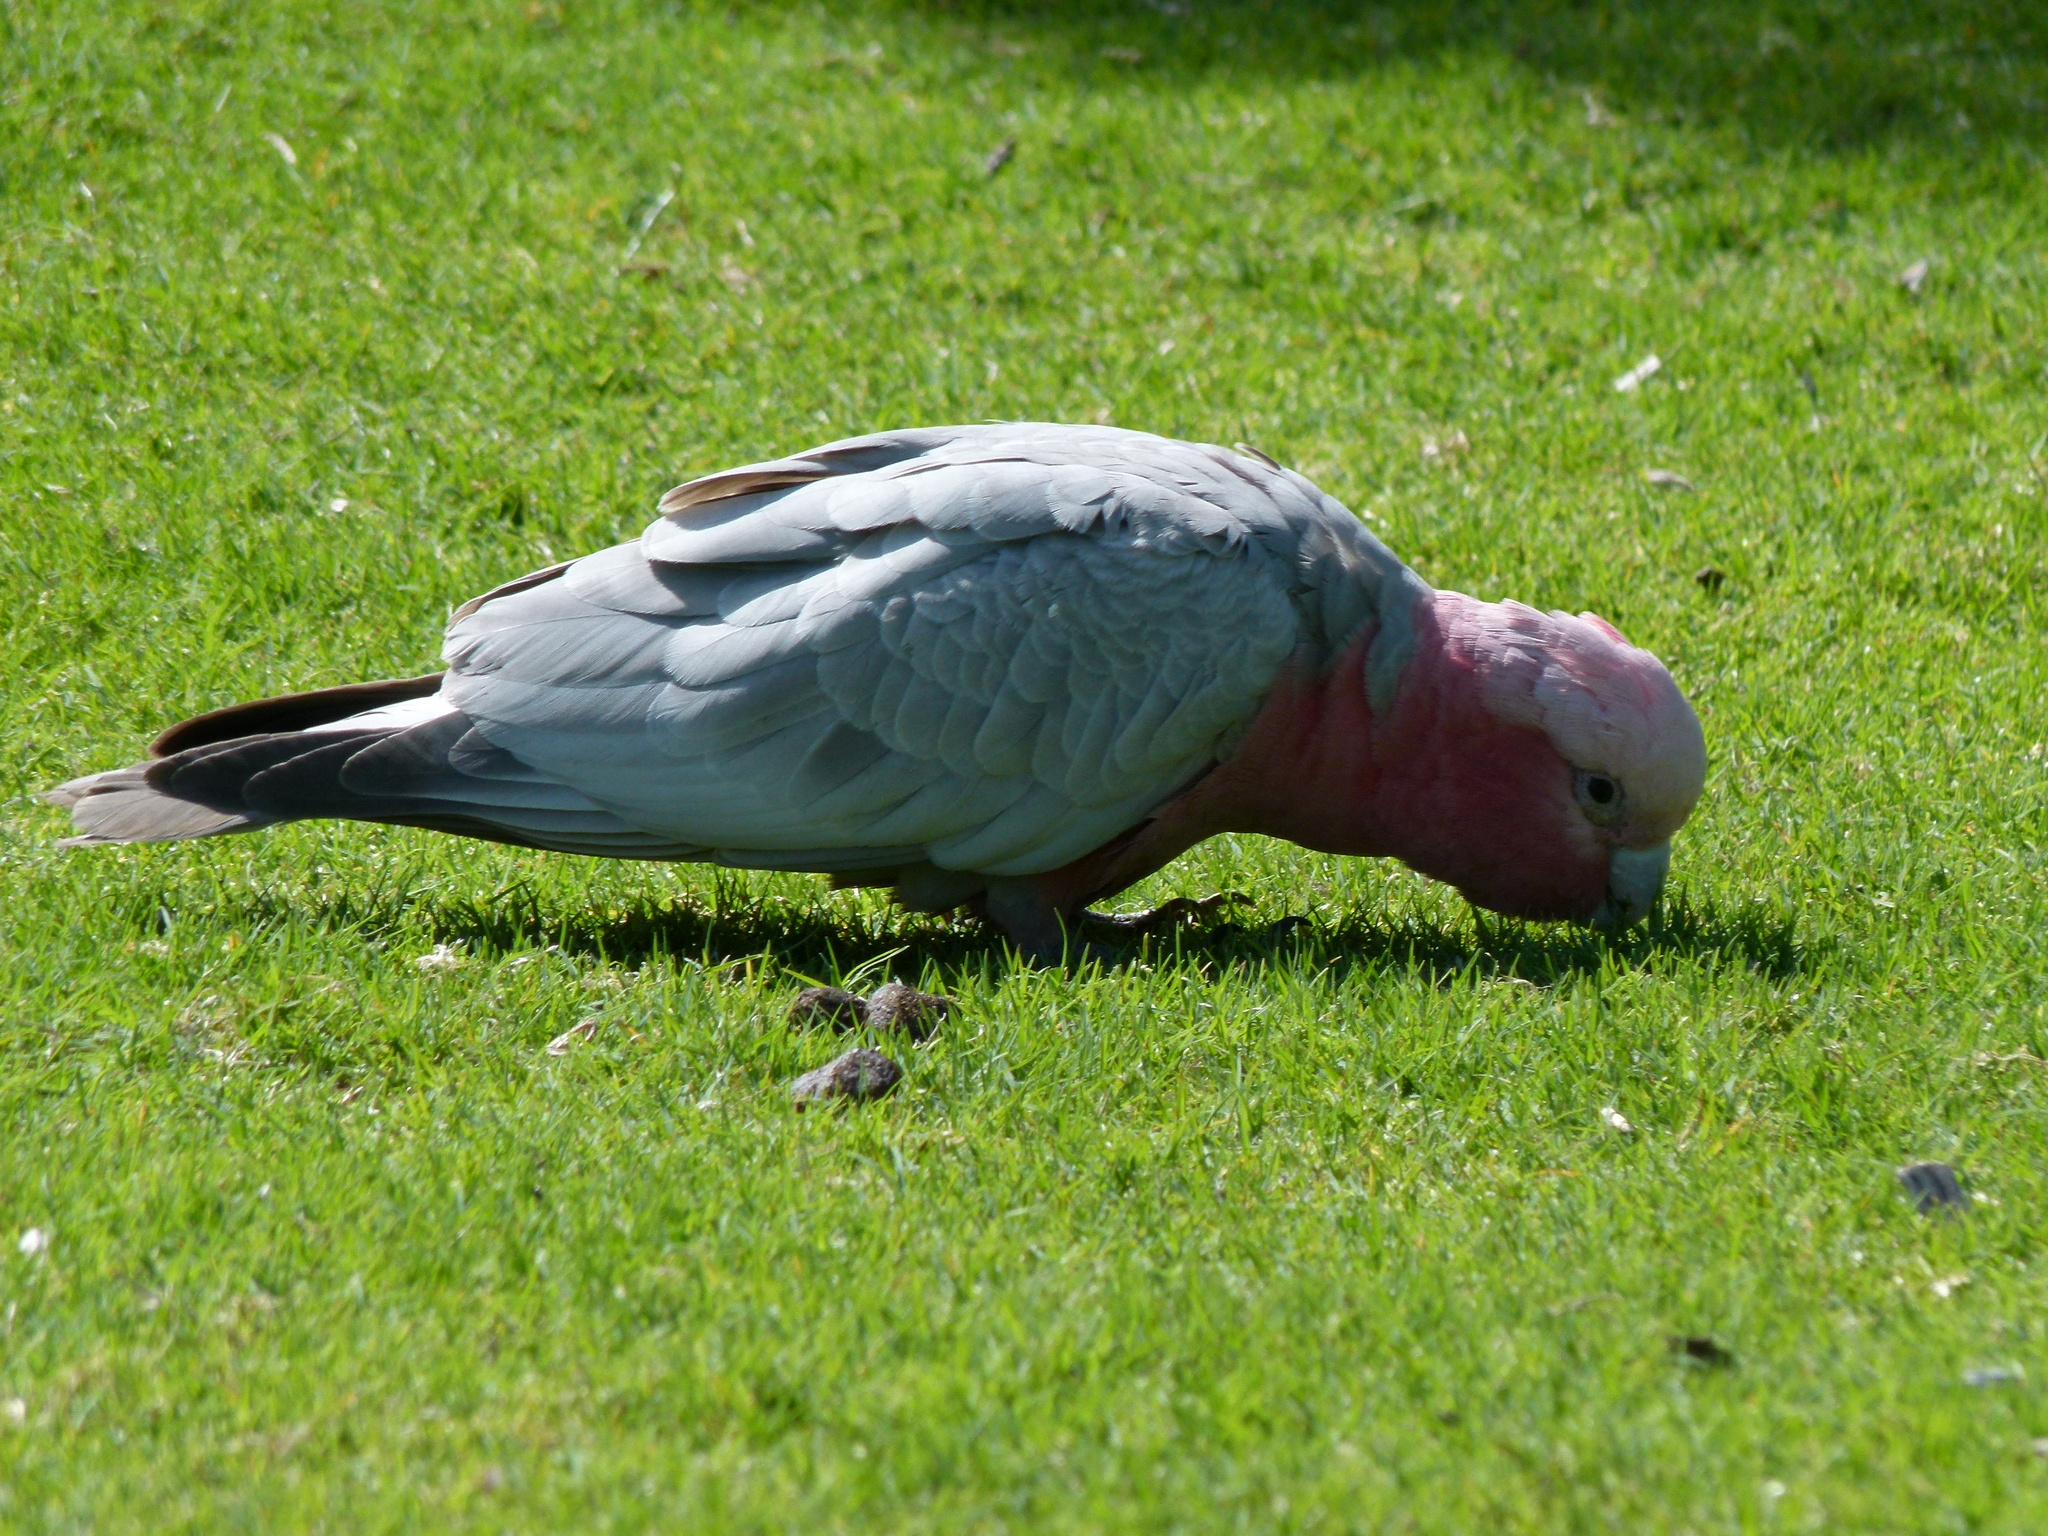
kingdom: Animalia
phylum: Chordata
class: Aves
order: Psittaciformes
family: Psittacidae
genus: Eolophus
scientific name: Eolophus roseicapilla
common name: Galah
